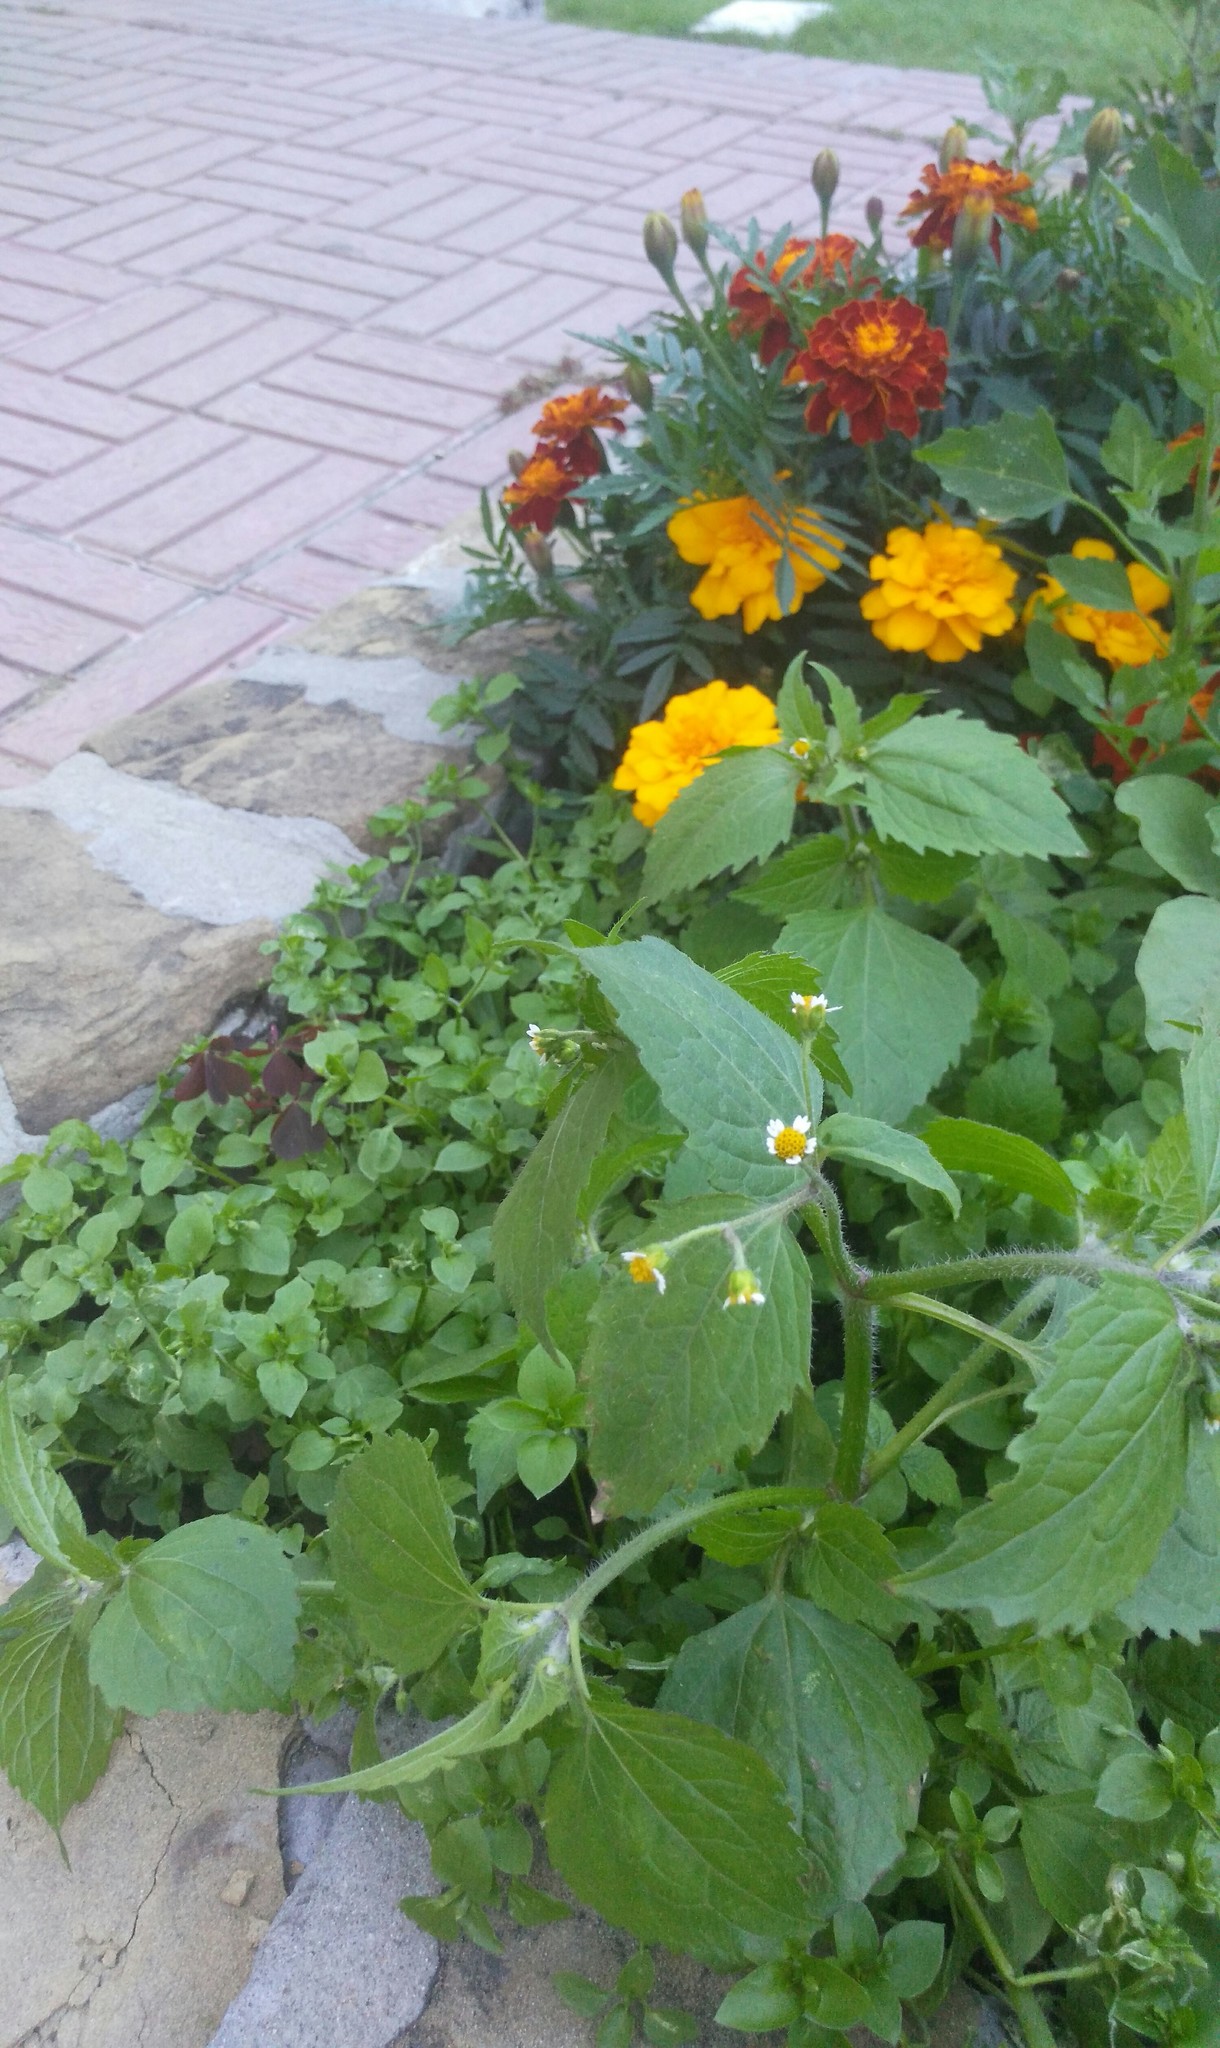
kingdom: Plantae
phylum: Tracheophyta
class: Magnoliopsida
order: Asterales
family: Asteraceae
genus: Galinsoga
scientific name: Galinsoga quadriradiata
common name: Shaggy soldier
